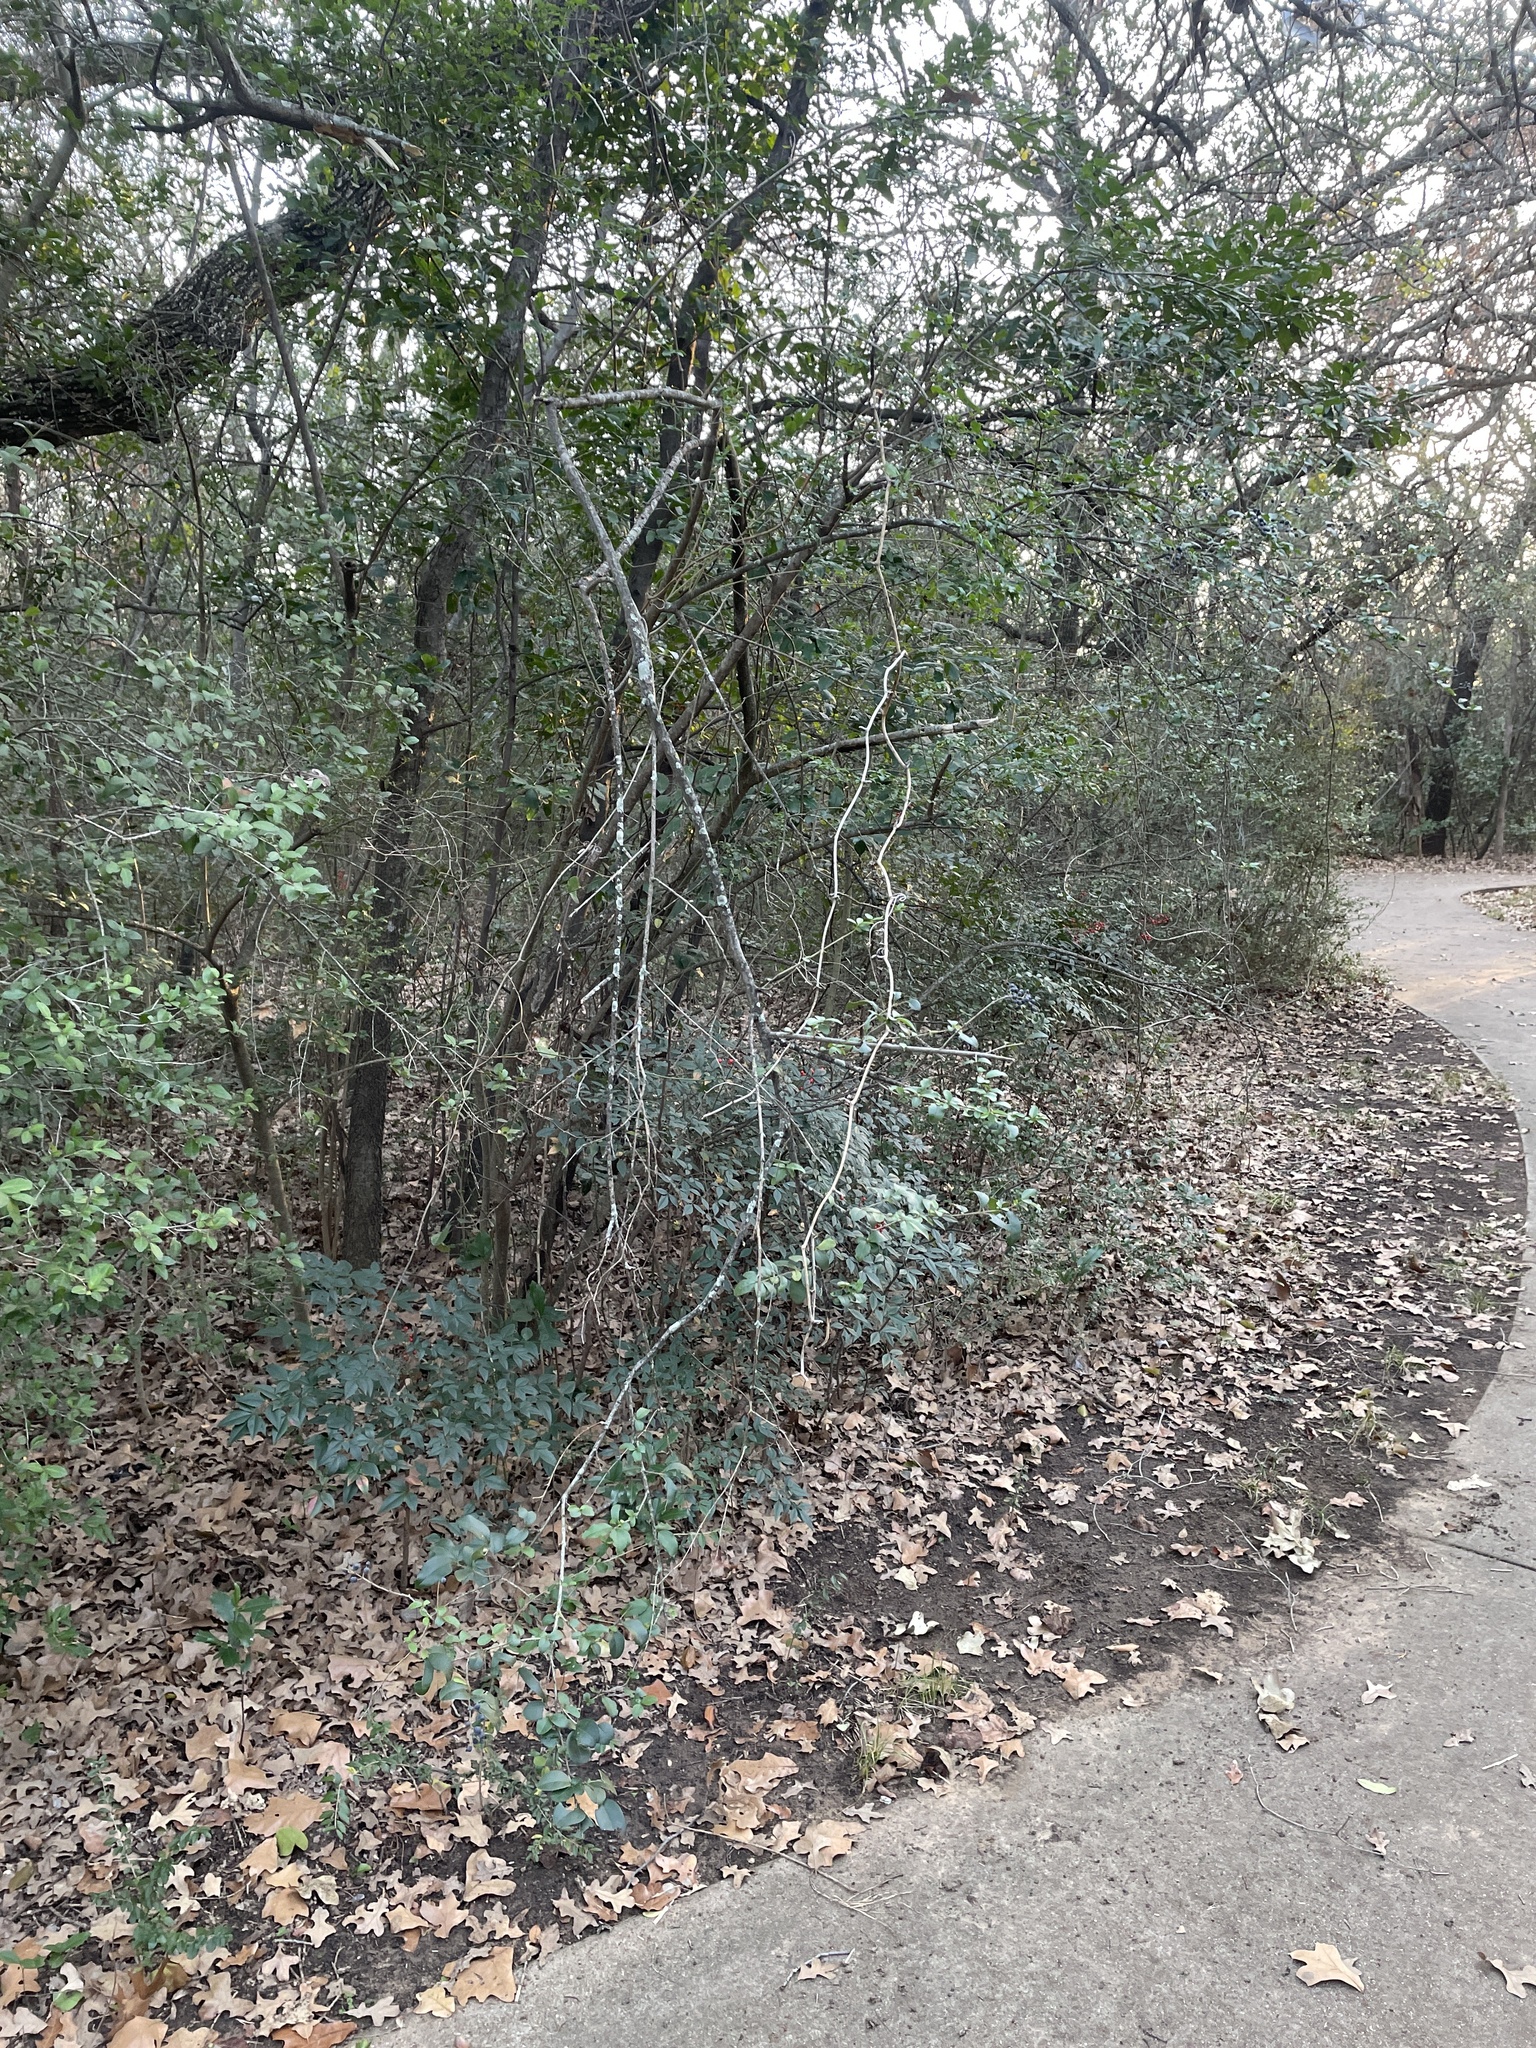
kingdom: Plantae
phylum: Tracheophyta
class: Magnoliopsida
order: Lamiales
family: Oleaceae
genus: Ligustrum
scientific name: Ligustrum sinense
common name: Chinese privet
